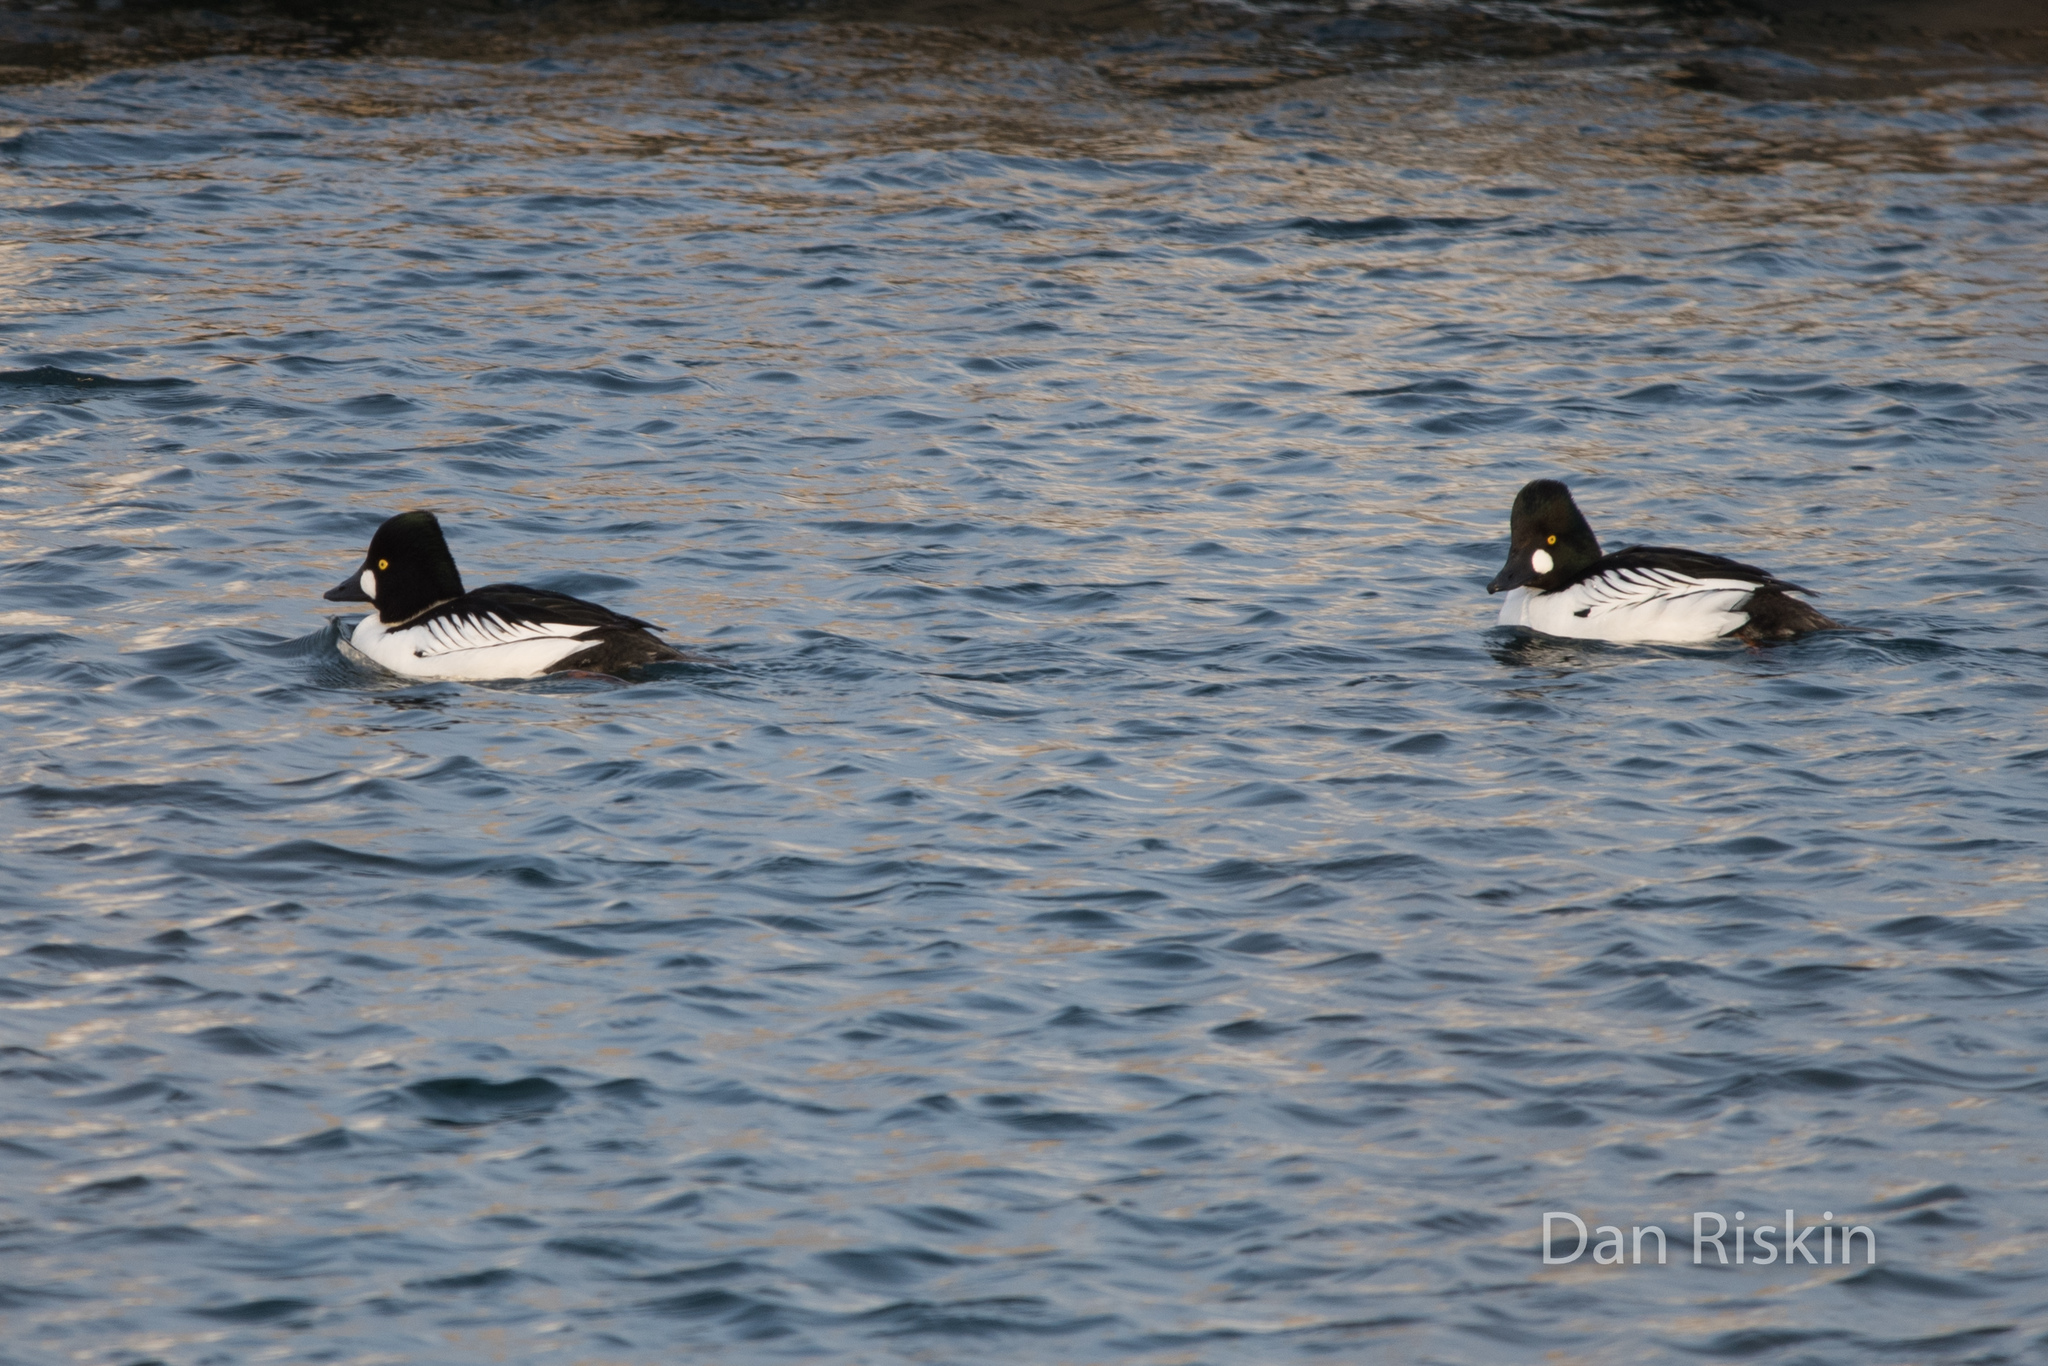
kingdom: Animalia
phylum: Chordata
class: Aves
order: Anseriformes
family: Anatidae
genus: Bucephala
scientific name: Bucephala clangula
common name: Common goldeneye
